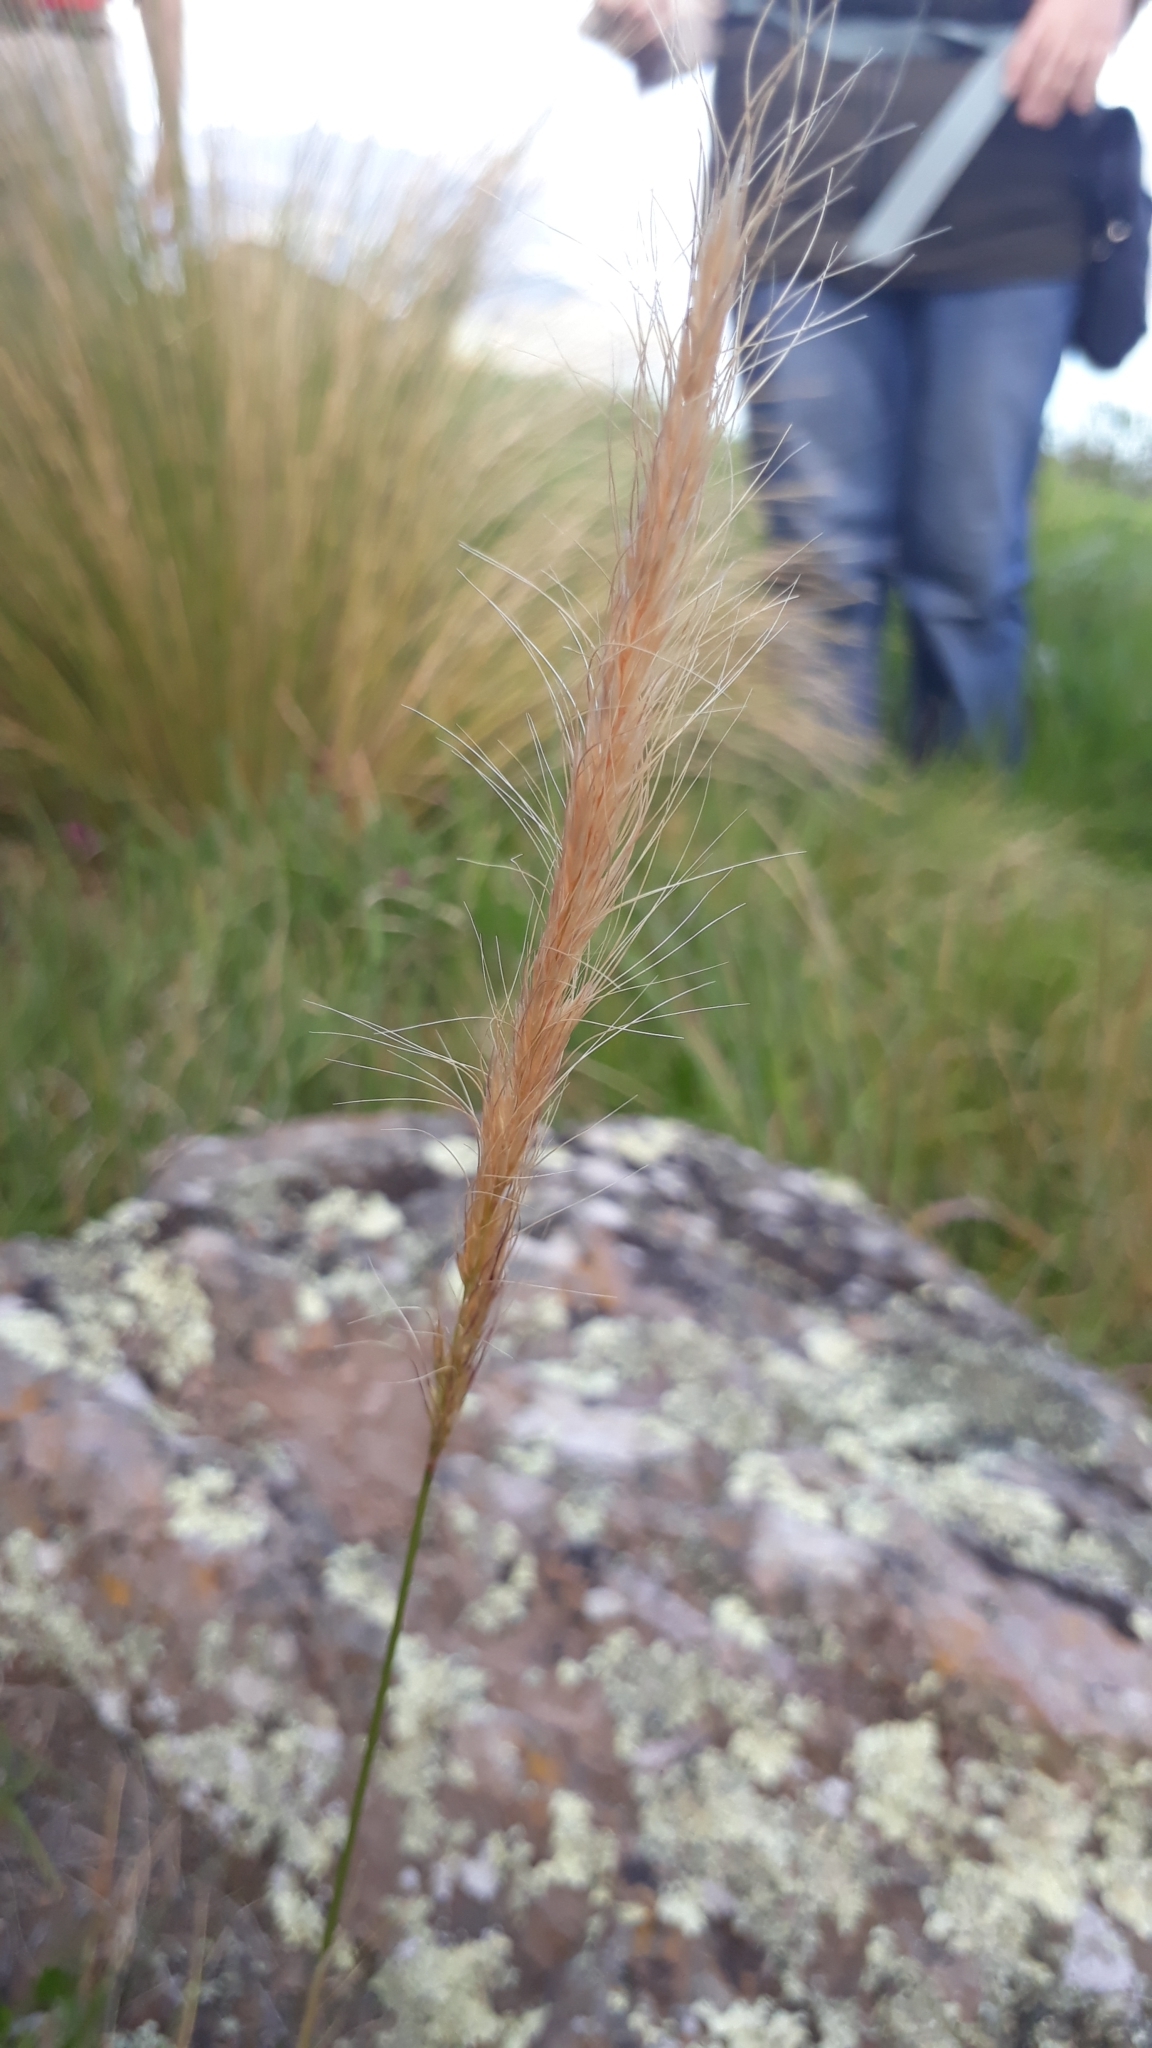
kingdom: Plantae
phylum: Tracheophyta
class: Liliopsida
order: Poales
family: Poaceae
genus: Dichelachne
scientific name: Dichelachne crinita
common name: Clovenfoot plumegrass
